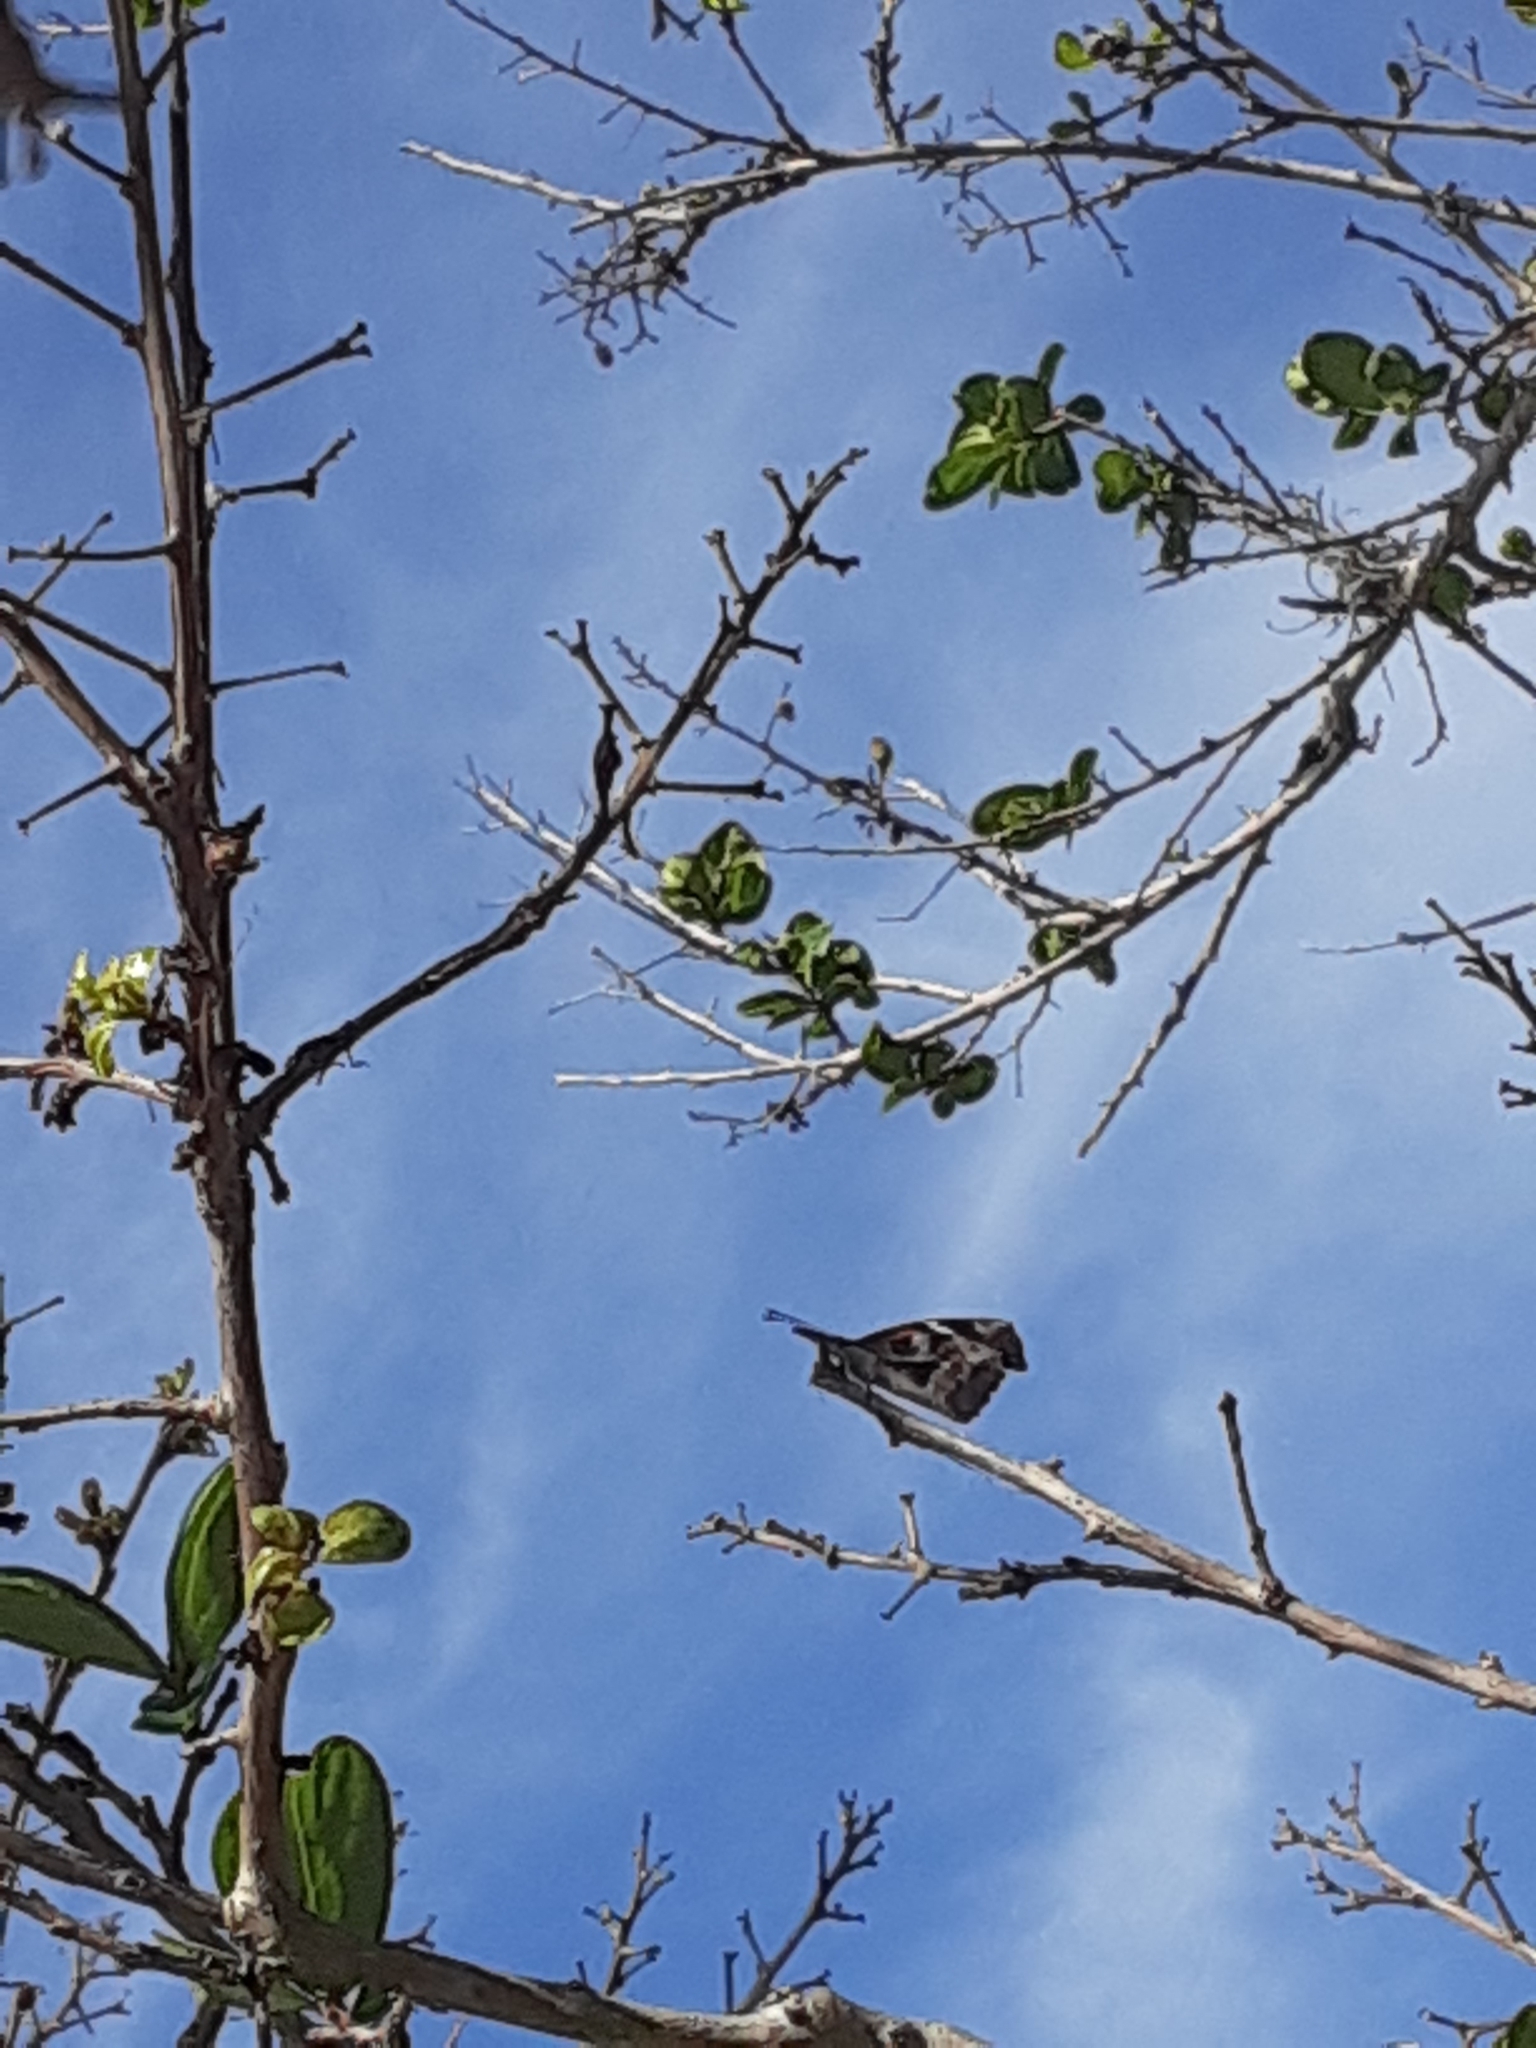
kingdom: Animalia
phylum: Arthropoda
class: Insecta
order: Lepidoptera
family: Nymphalidae
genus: Libytheana
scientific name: Libytheana carinenta
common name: American snout
